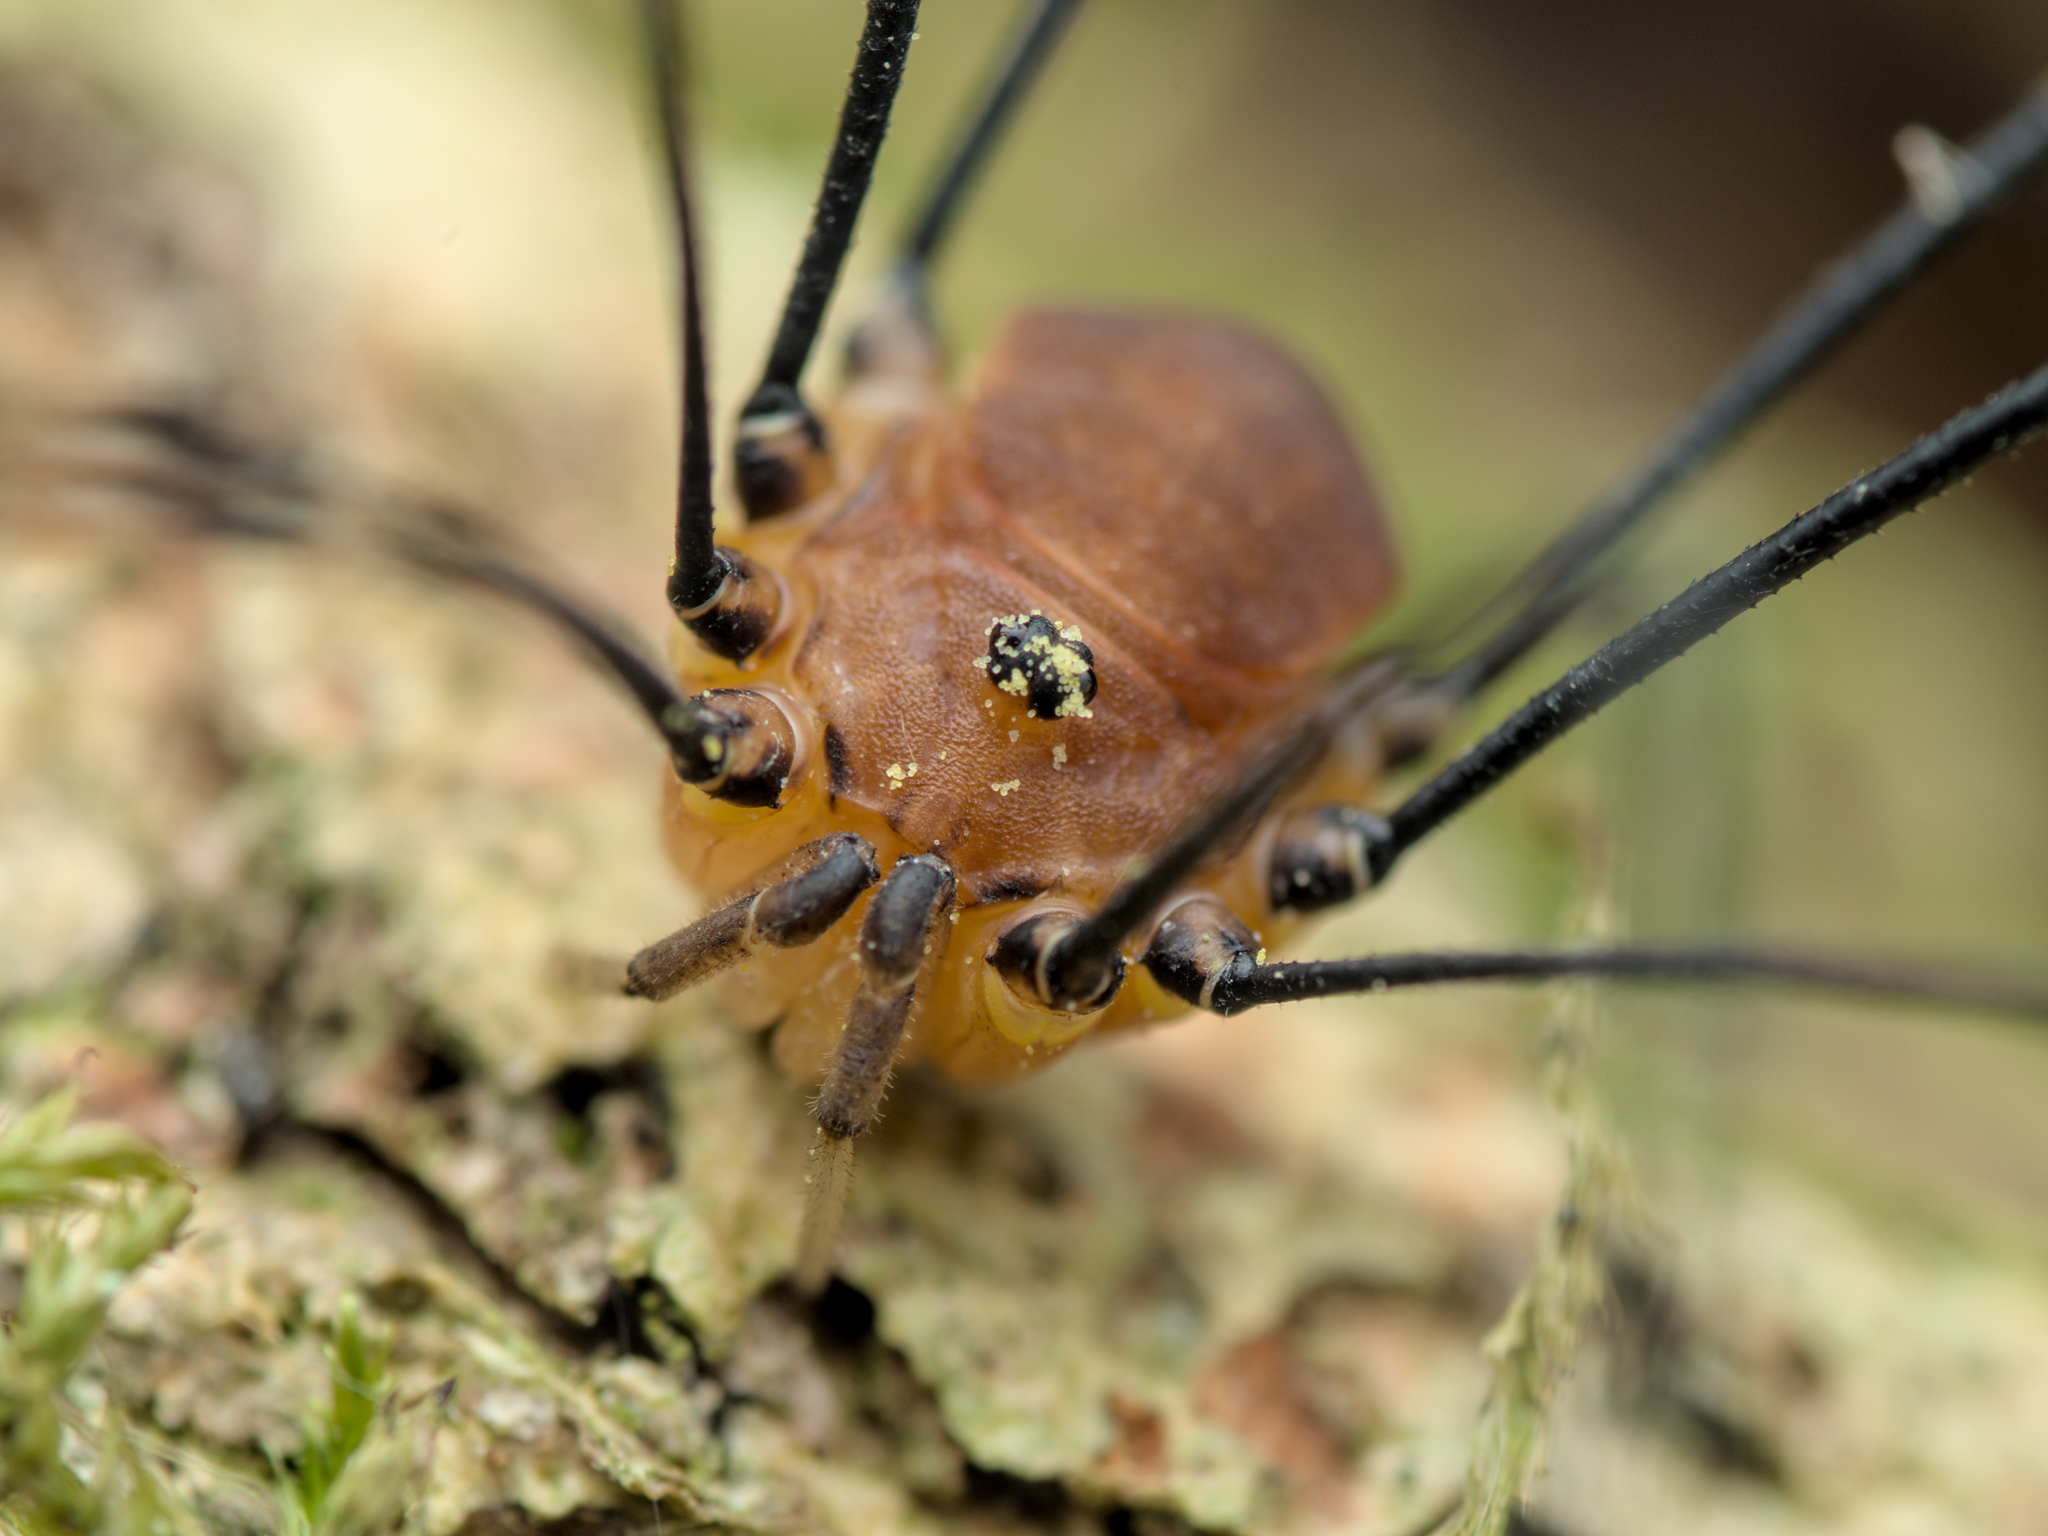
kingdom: Animalia
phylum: Arthropoda
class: Arachnida
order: Opiliones
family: Sclerosomatidae
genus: Leiobunum
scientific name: Leiobunum rotundum
